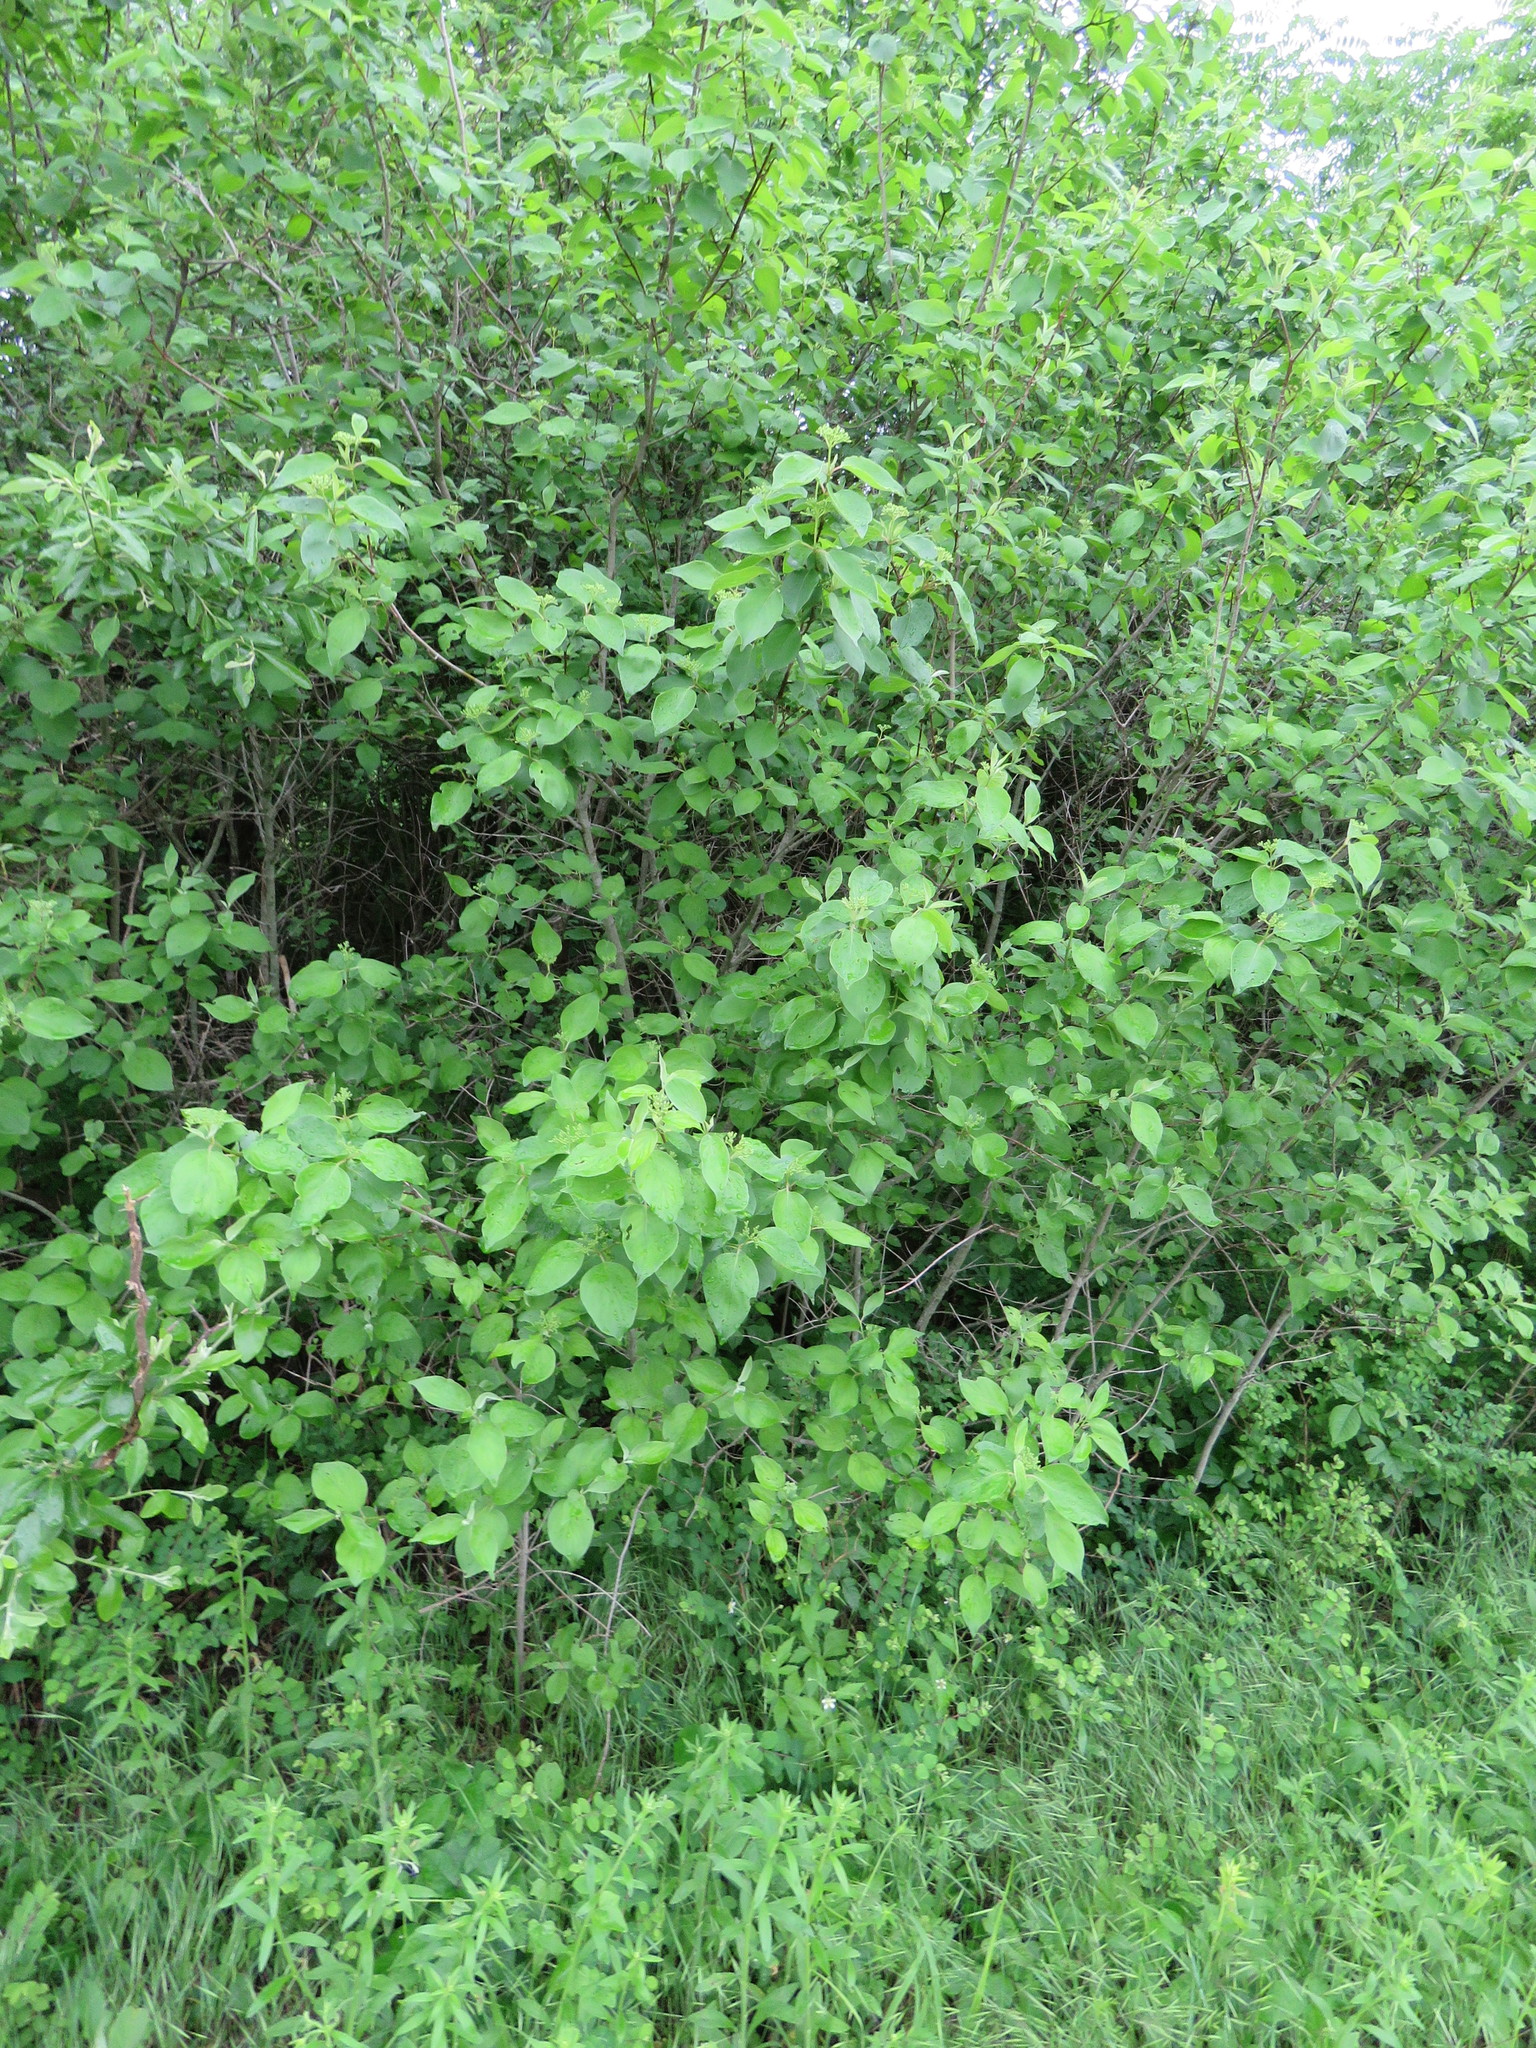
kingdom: Plantae
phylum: Tracheophyta
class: Magnoliopsida
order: Cornales
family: Cornaceae
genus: Cornus
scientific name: Cornus drummondii
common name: Rough-leaf dogwood
